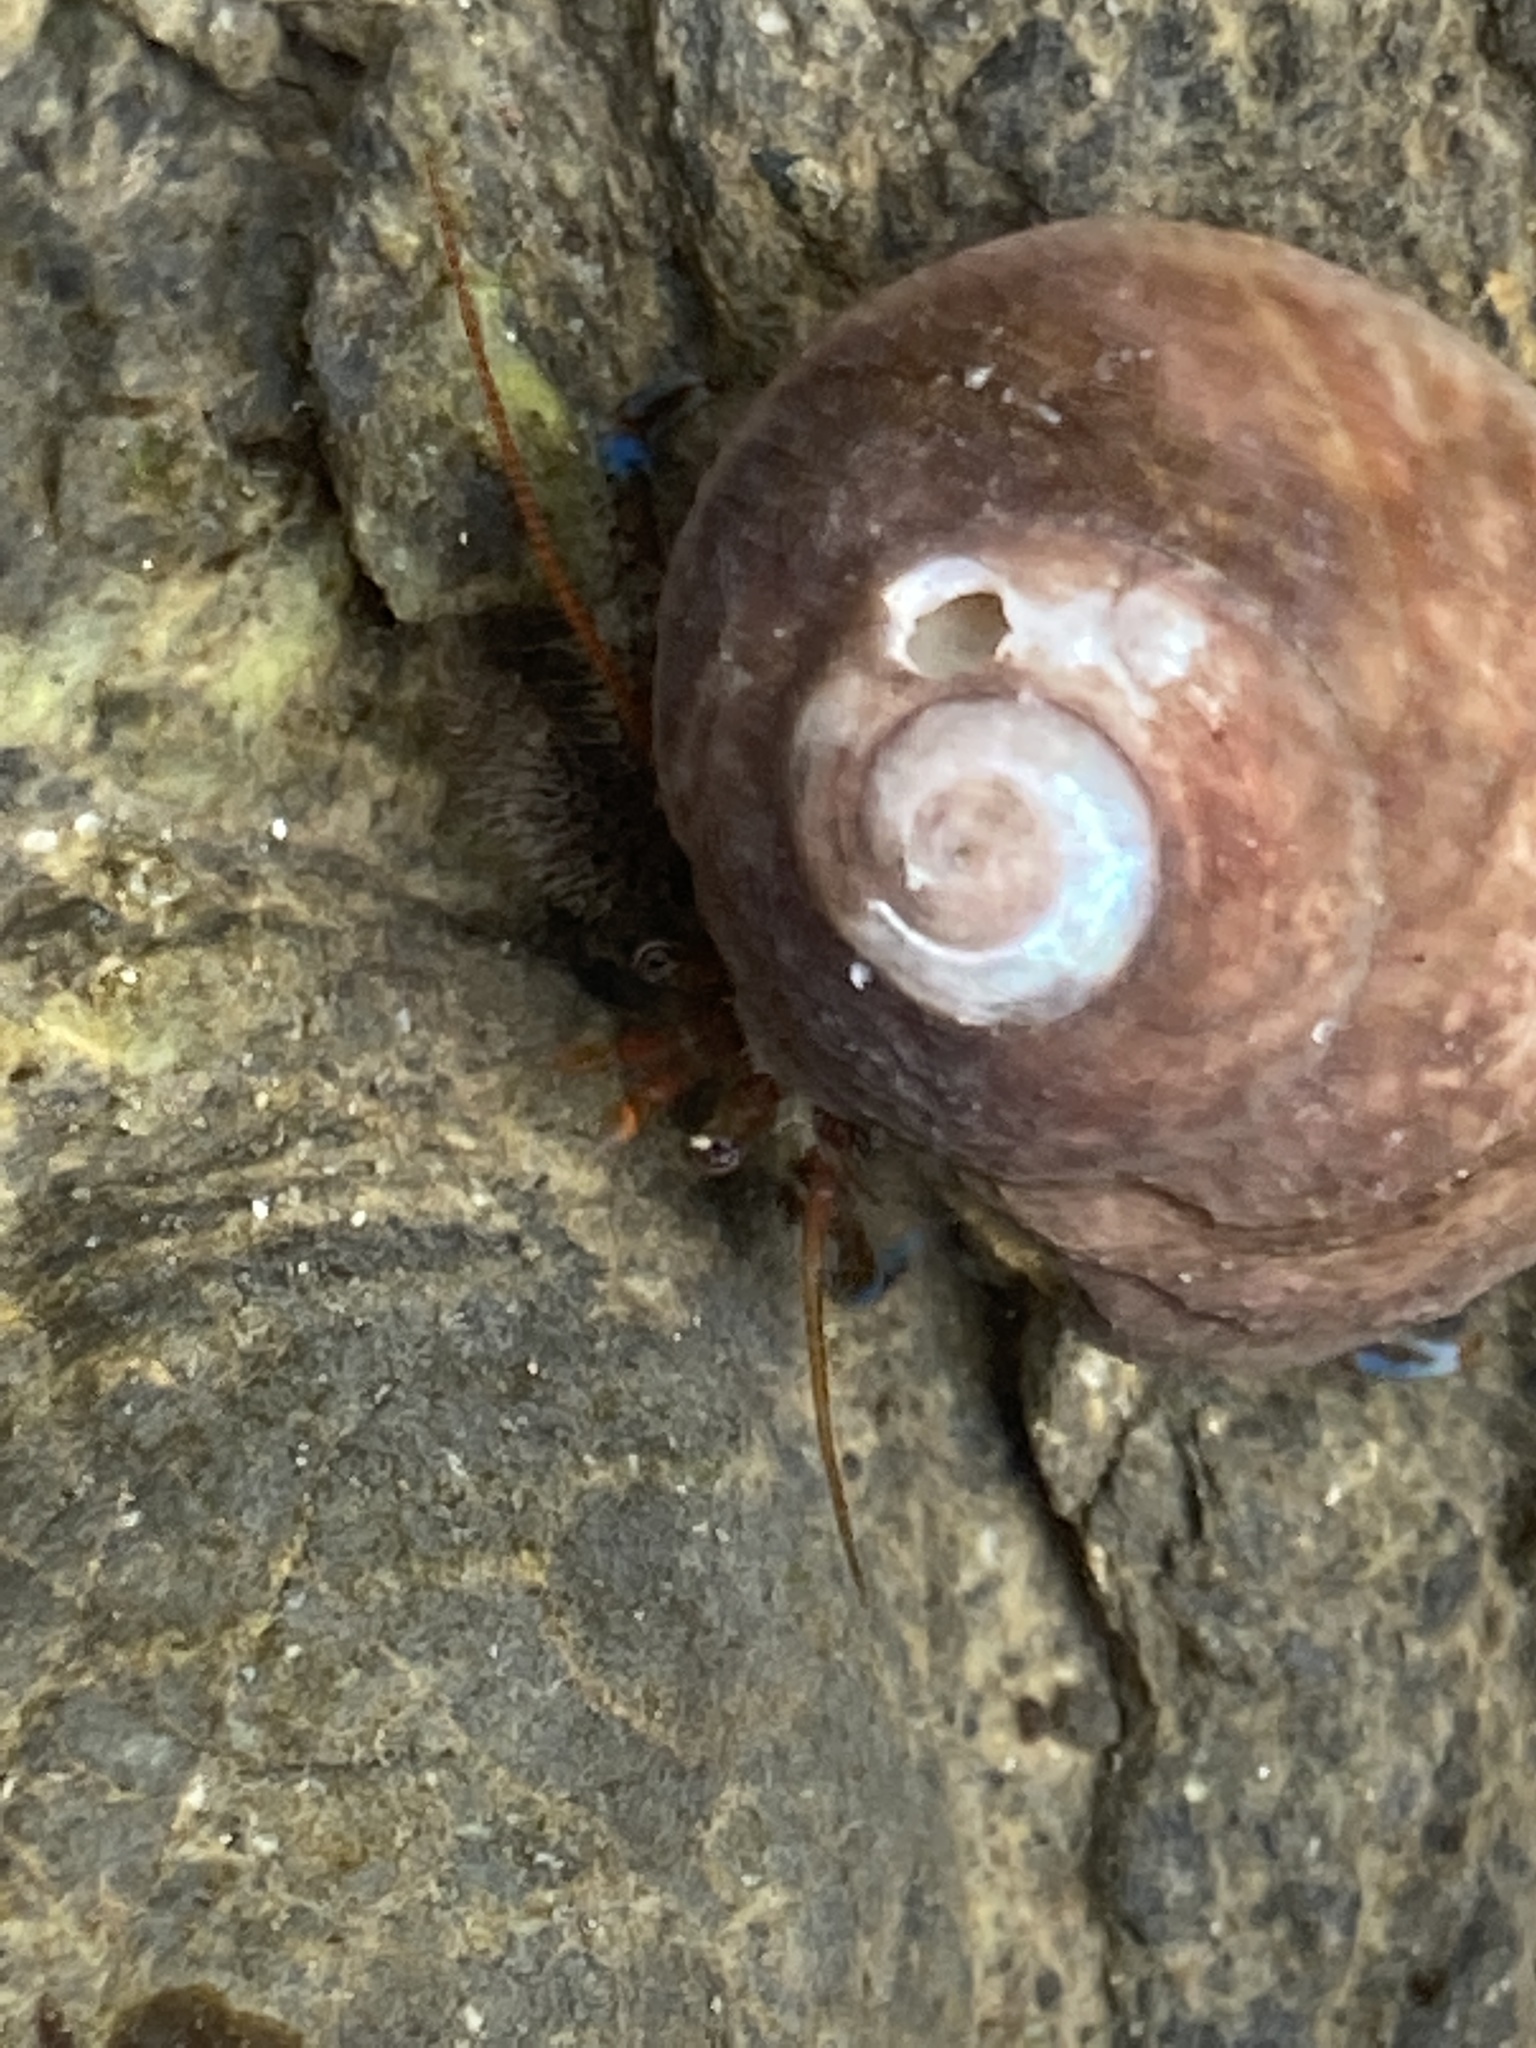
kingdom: Animalia
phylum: Arthropoda
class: Malacostraca
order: Decapoda
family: Paguridae
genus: Pagurus
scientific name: Pagurus samuelis
